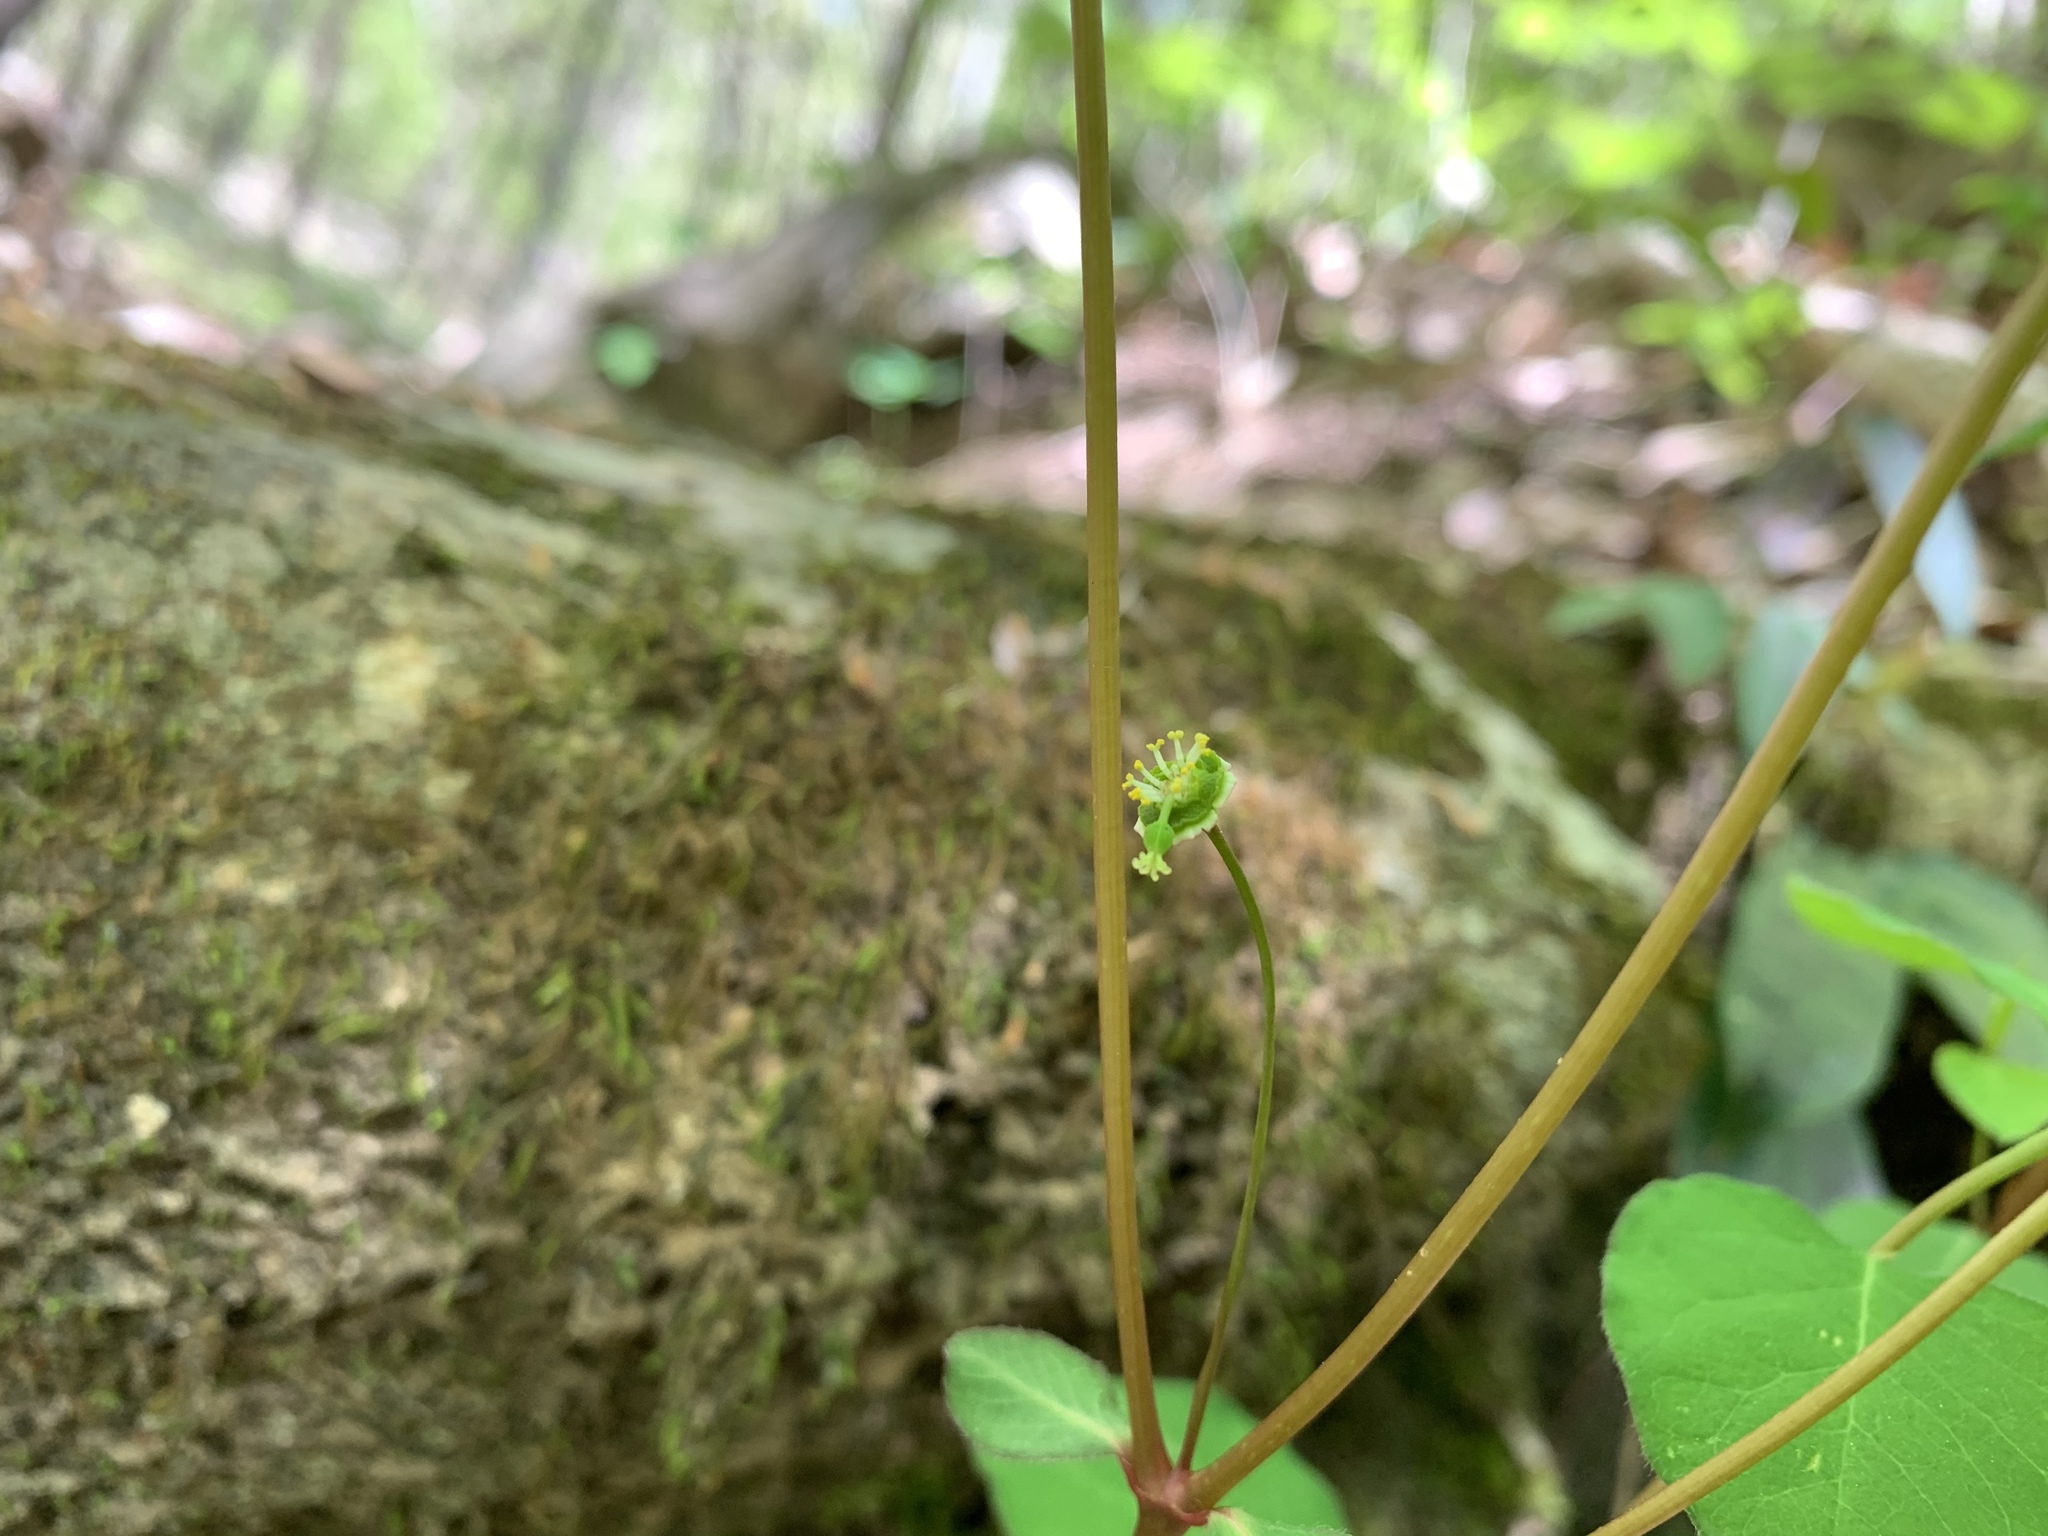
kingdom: Plantae
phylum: Tracheophyta
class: Magnoliopsida
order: Malpighiales
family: Euphorbiaceae
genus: Euphorbia
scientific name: Euphorbia mercurialina
